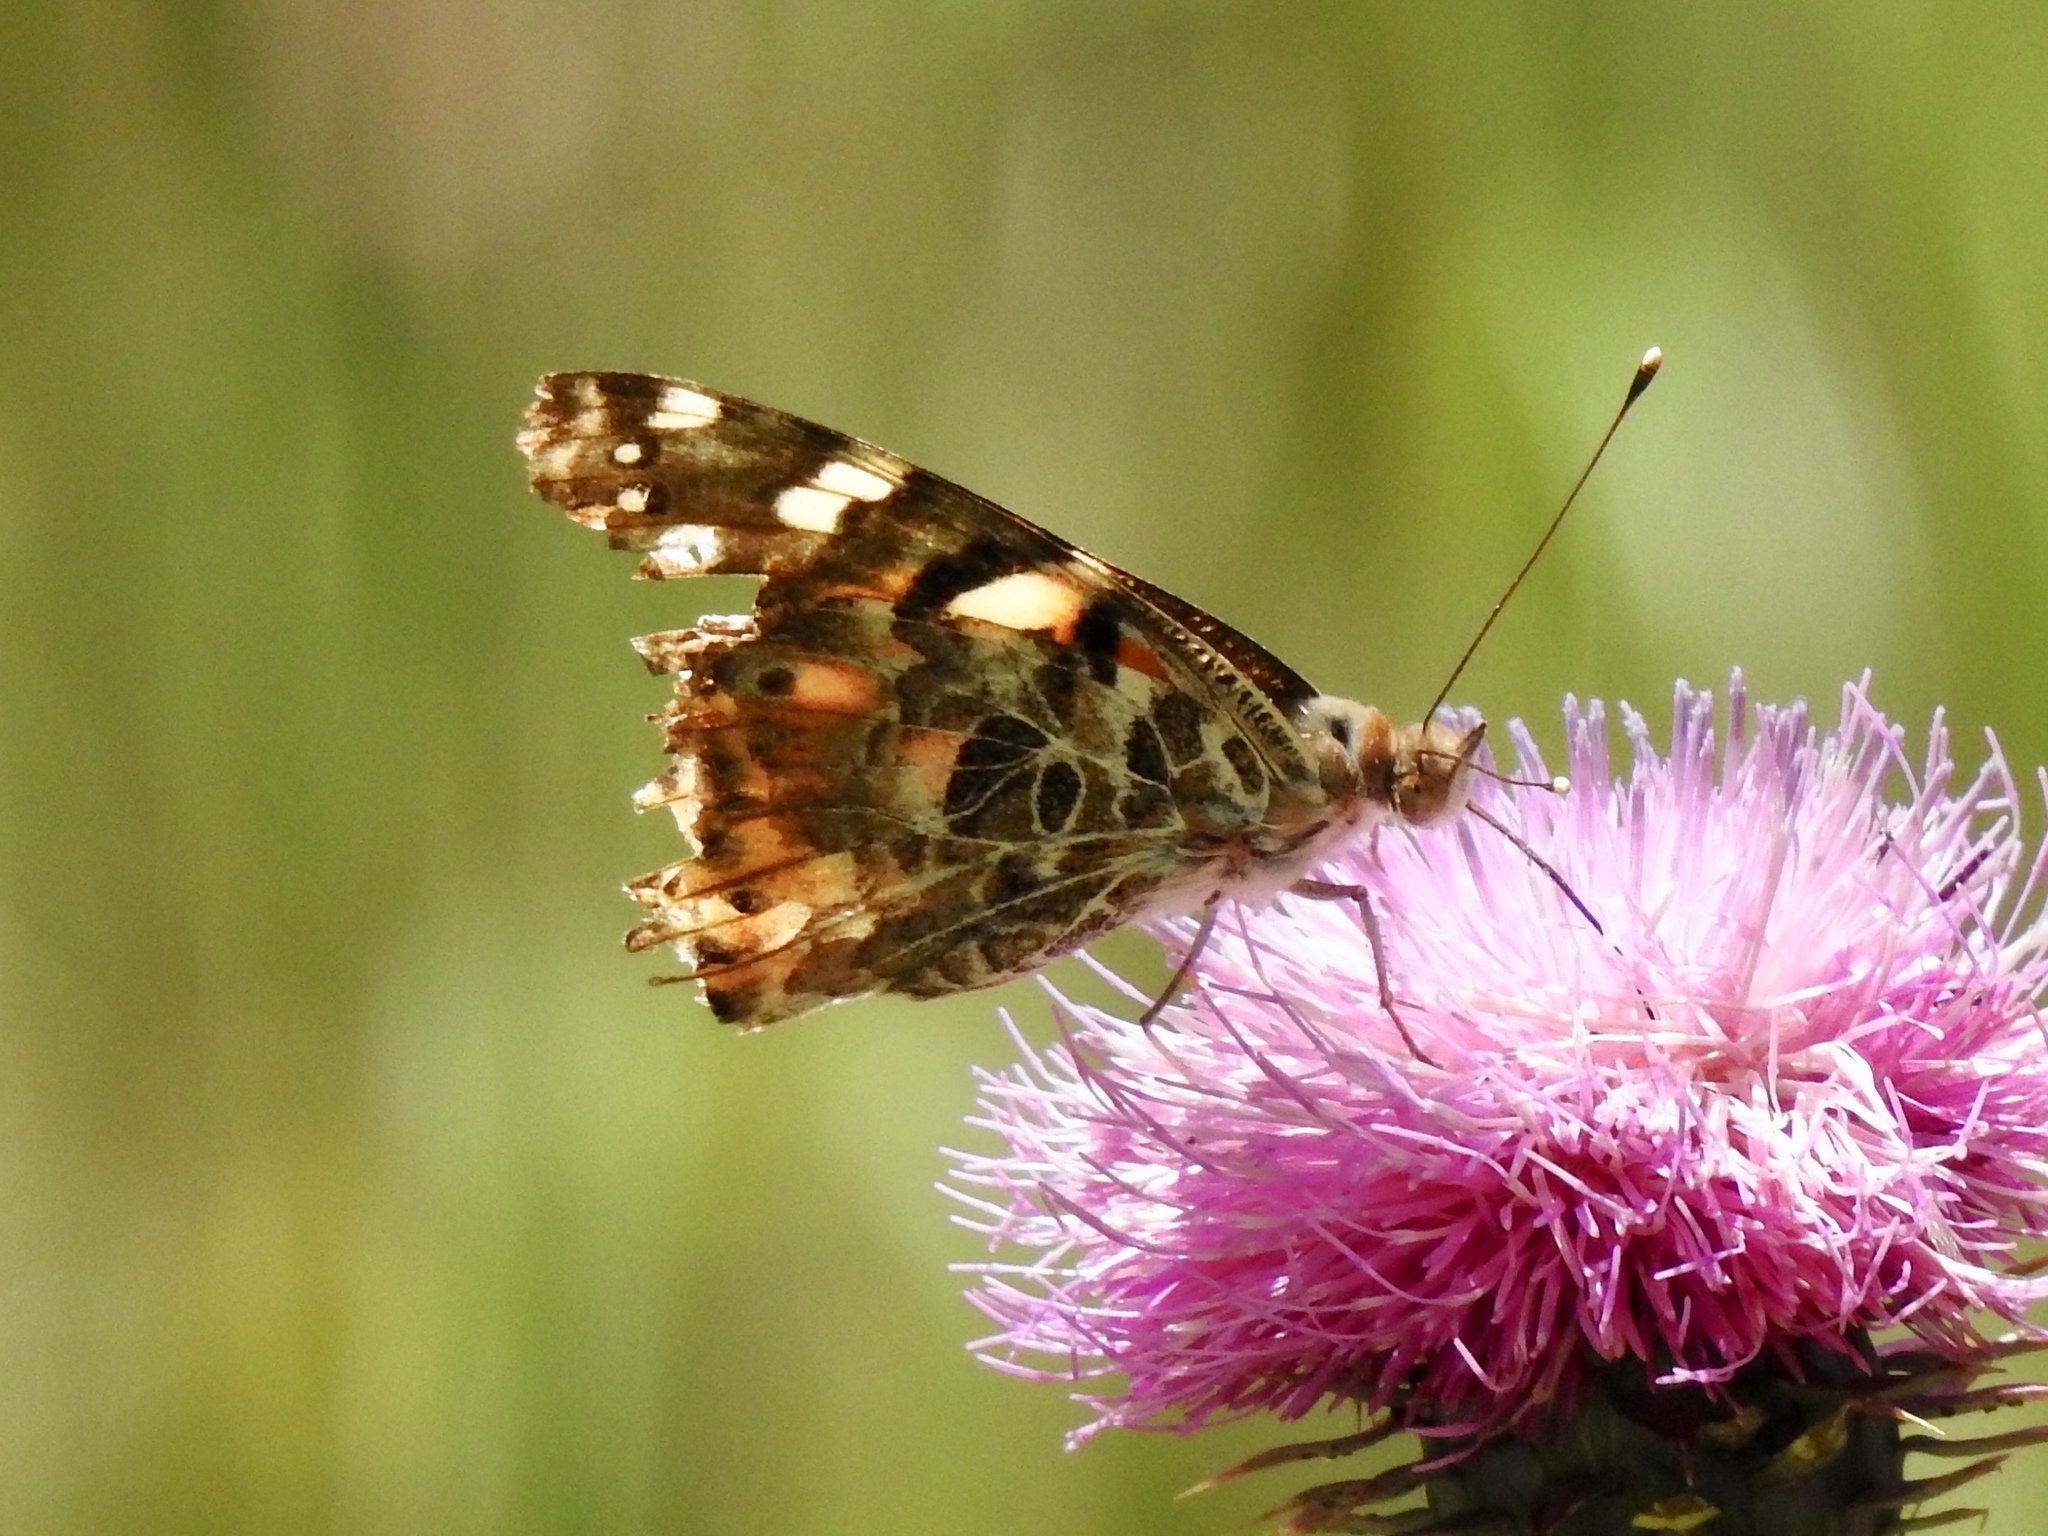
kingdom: Animalia
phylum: Arthropoda
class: Insecta
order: Lepidoptera
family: Nymphalidae
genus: Vanessa
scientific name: Vanessa cardui
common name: Painted lady
